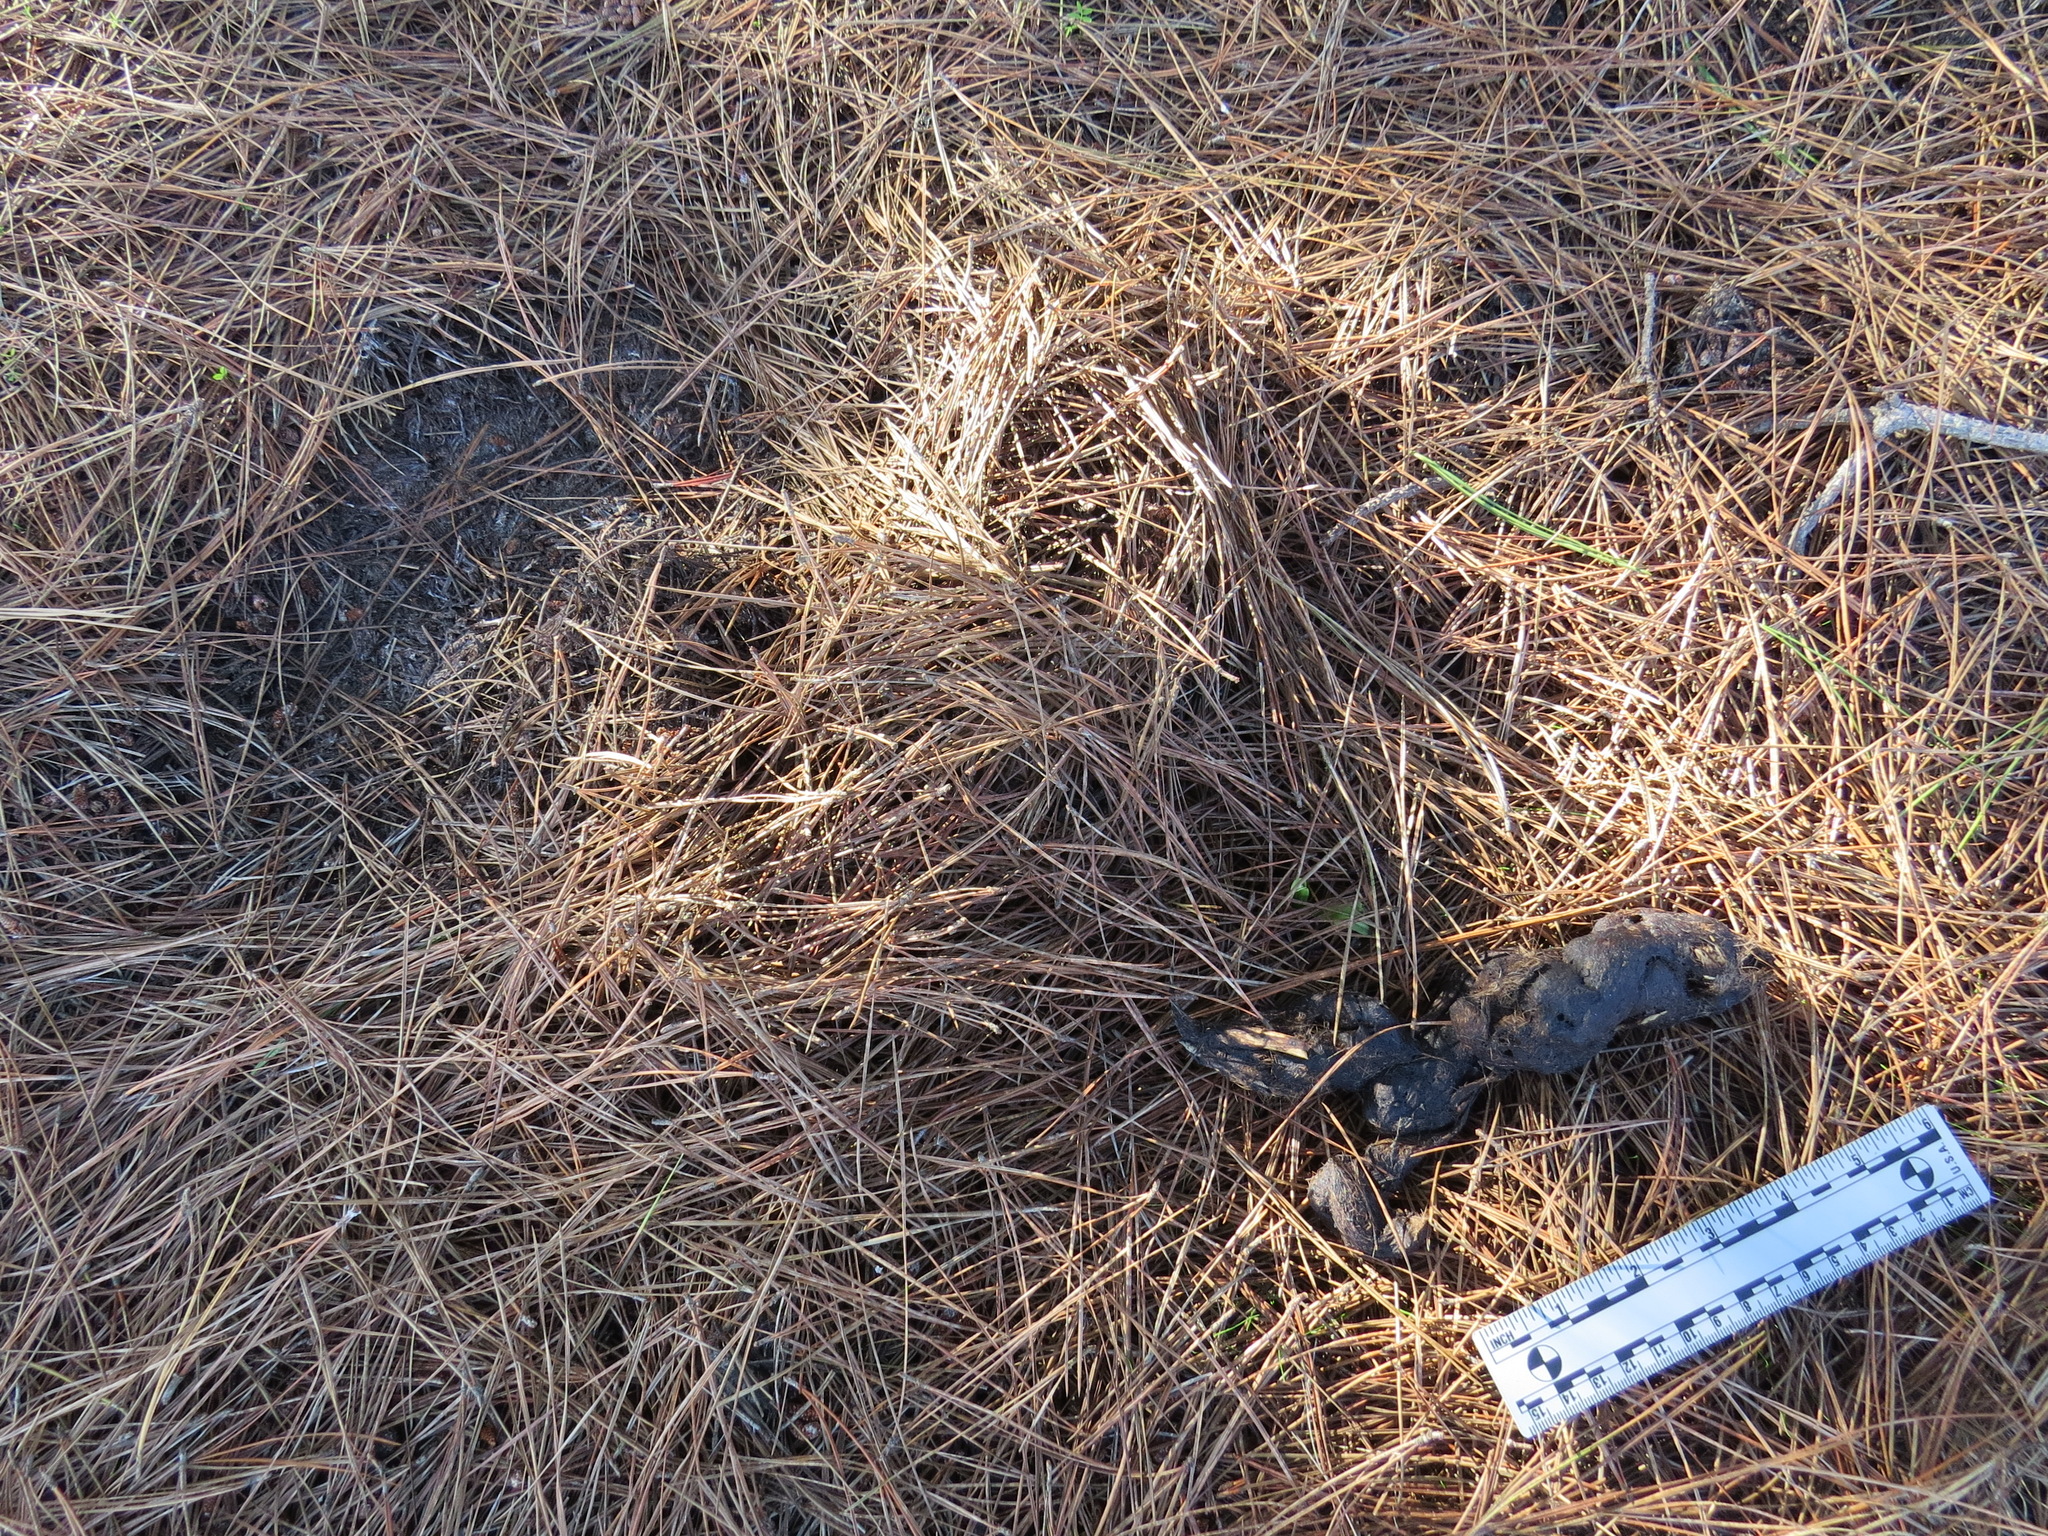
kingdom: Animalia
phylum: Chordata
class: Mammalia
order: Carnivora
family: Felidae
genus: Puma
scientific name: Puma concolor
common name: Puma
